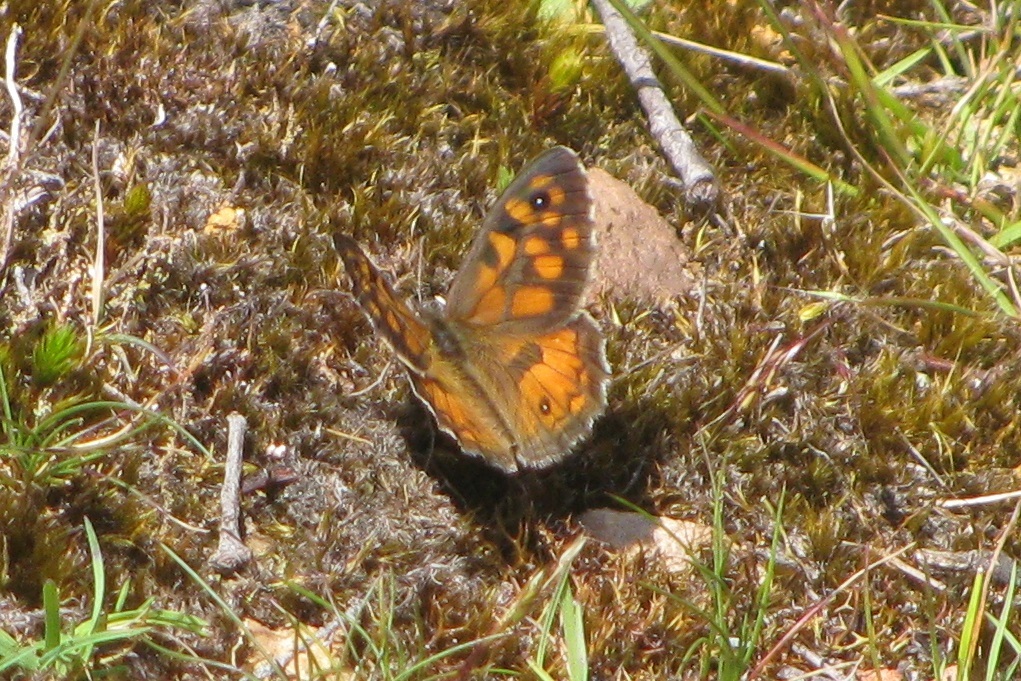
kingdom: Animalia
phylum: Arthropoda
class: Insecta
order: Lepidoptera
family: Nymphalidae
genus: Geitoneura
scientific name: Geitoneura klugii
